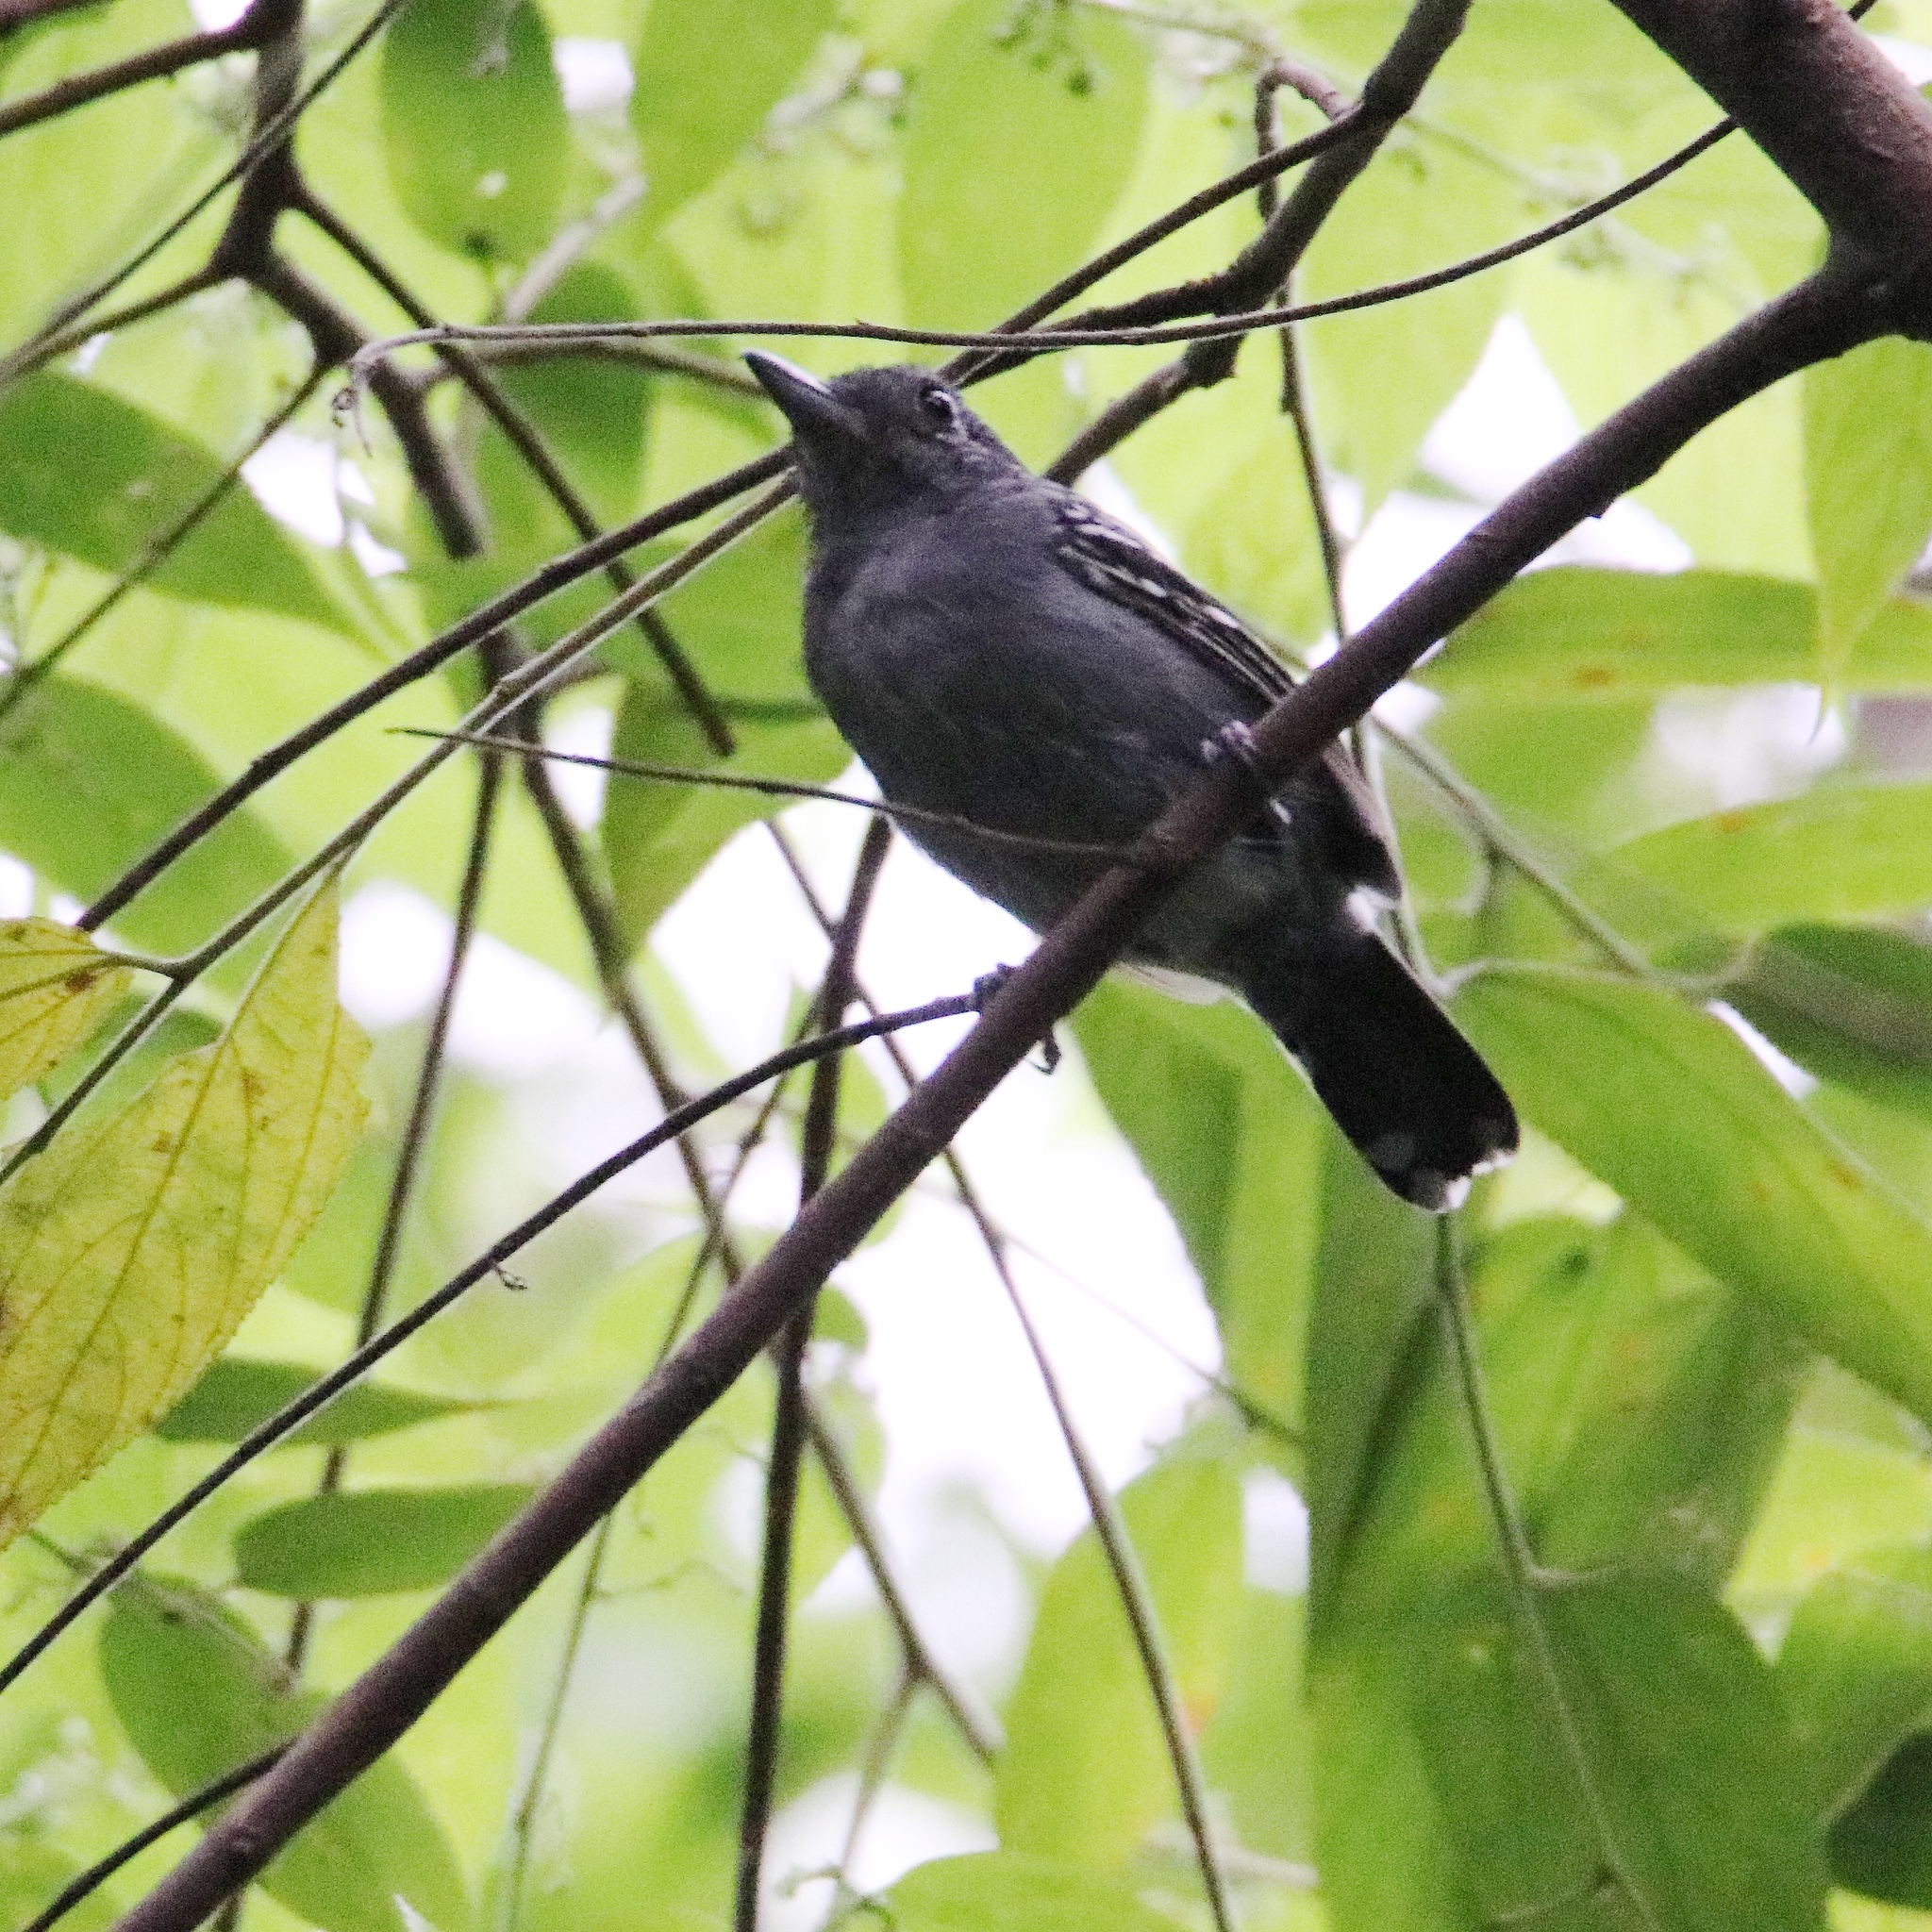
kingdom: Animalia
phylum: Chordata
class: Aves
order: Passeriformes
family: Thamnophilidae
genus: Thamnophilus
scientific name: Thamnophilus atrinucha
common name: Black-crowned antshrike
